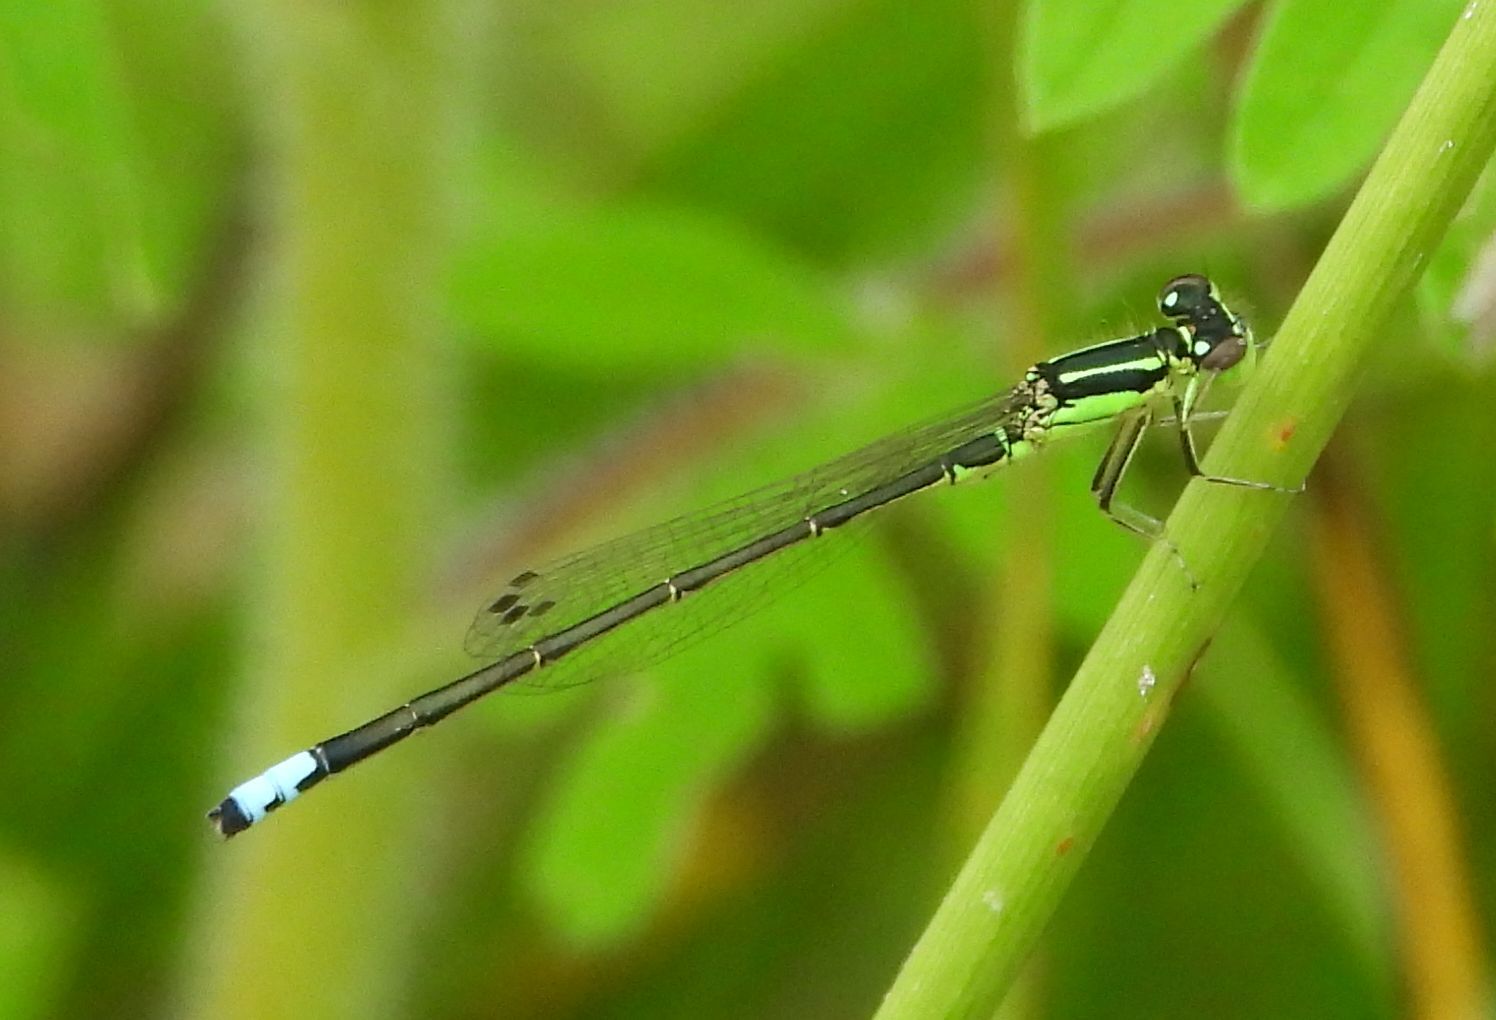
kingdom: Animalia
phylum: Arthropoda
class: Insecta
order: Odonata
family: Coenagrionidae
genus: Ischnura
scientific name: Ischnura verticalis
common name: Eastern forktail
